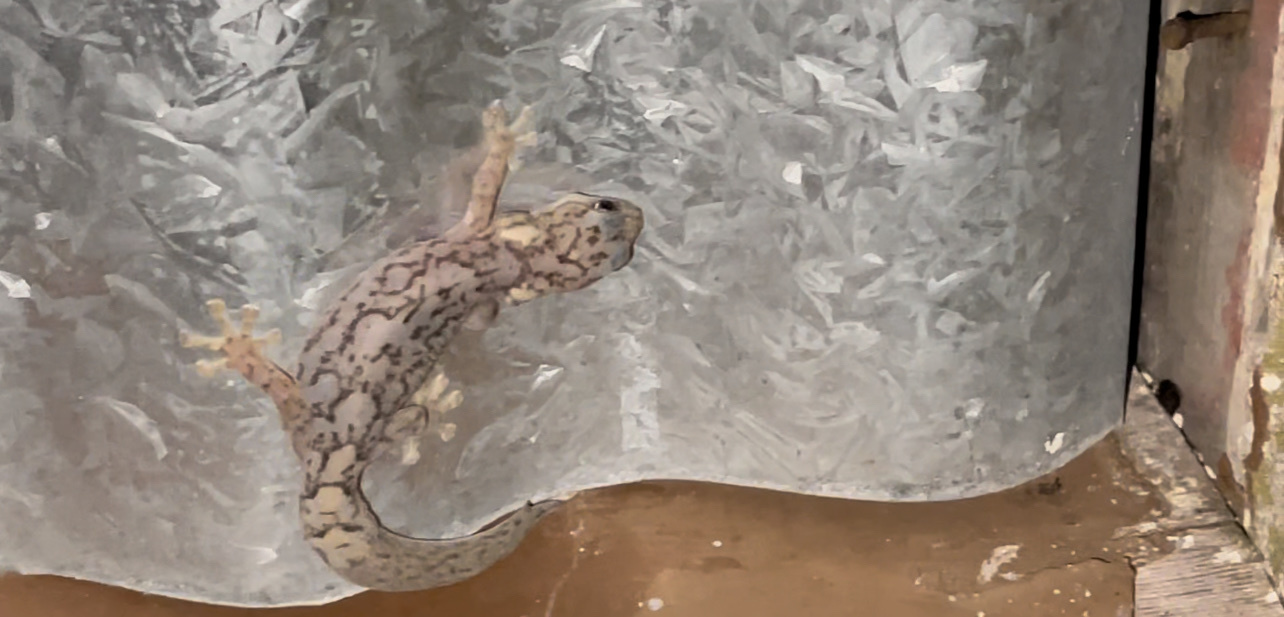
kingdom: Animalia
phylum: Chordata
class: Squamata
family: Gekkonidae
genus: Christinus
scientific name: Christinus marmoratus
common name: Marbled gecko
